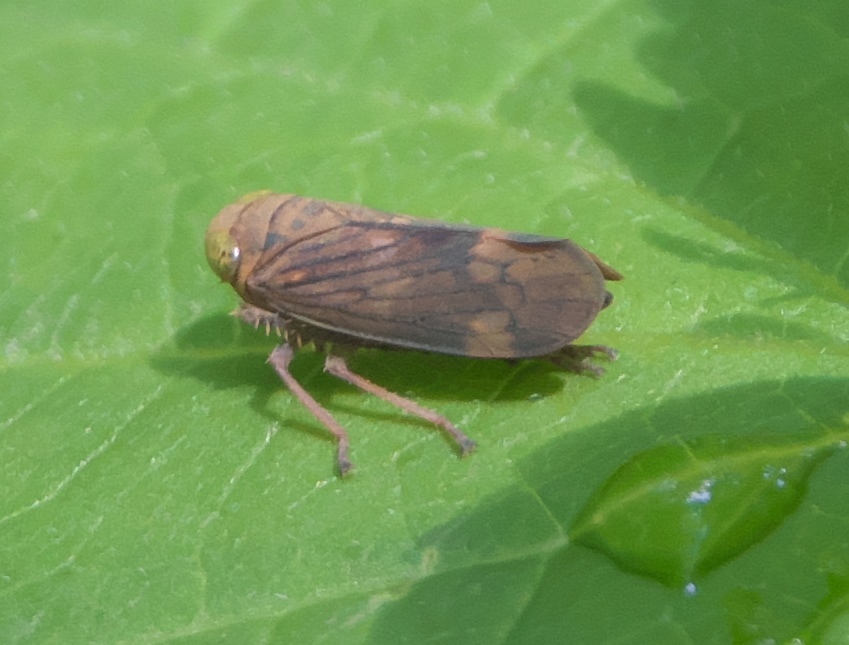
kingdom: Animalia
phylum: Arthropoda
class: Insecta
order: Hemiptera
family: Cicadellidae
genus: Jikradia
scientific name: Jikradia olitoria
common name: Coppery leafhopper
